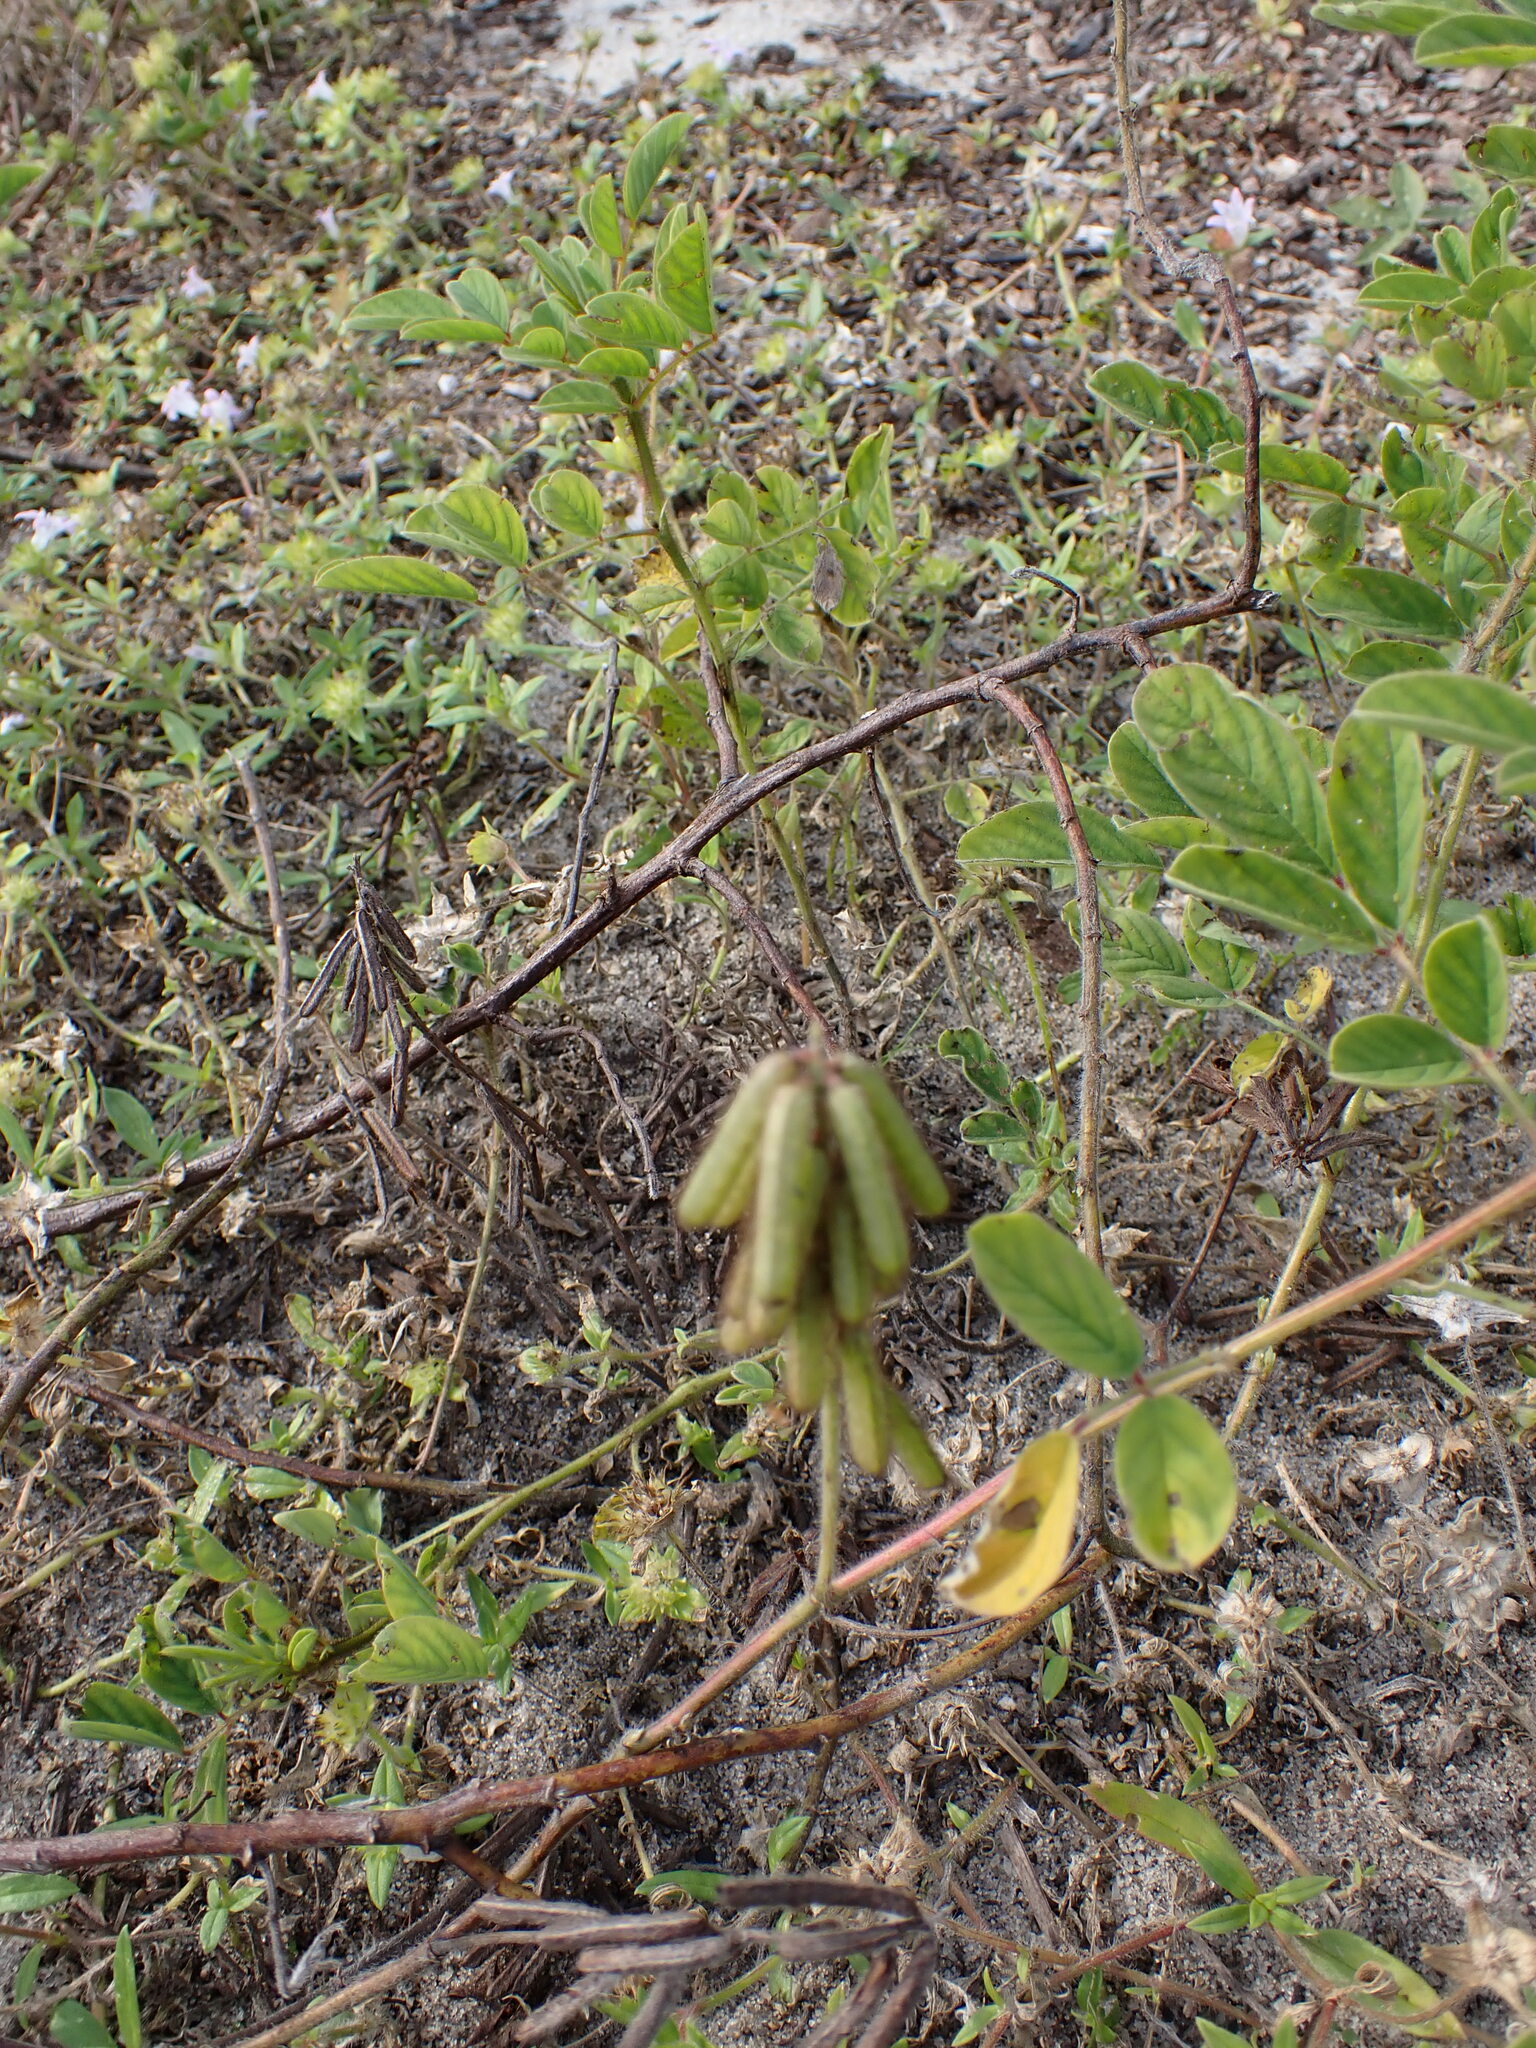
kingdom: Plantae
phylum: Tracheophyta
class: Magnoliopsida
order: Fabales
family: Fabaceae
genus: Indigofera
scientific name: Indigofera hirsuta
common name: Hairy indigo
